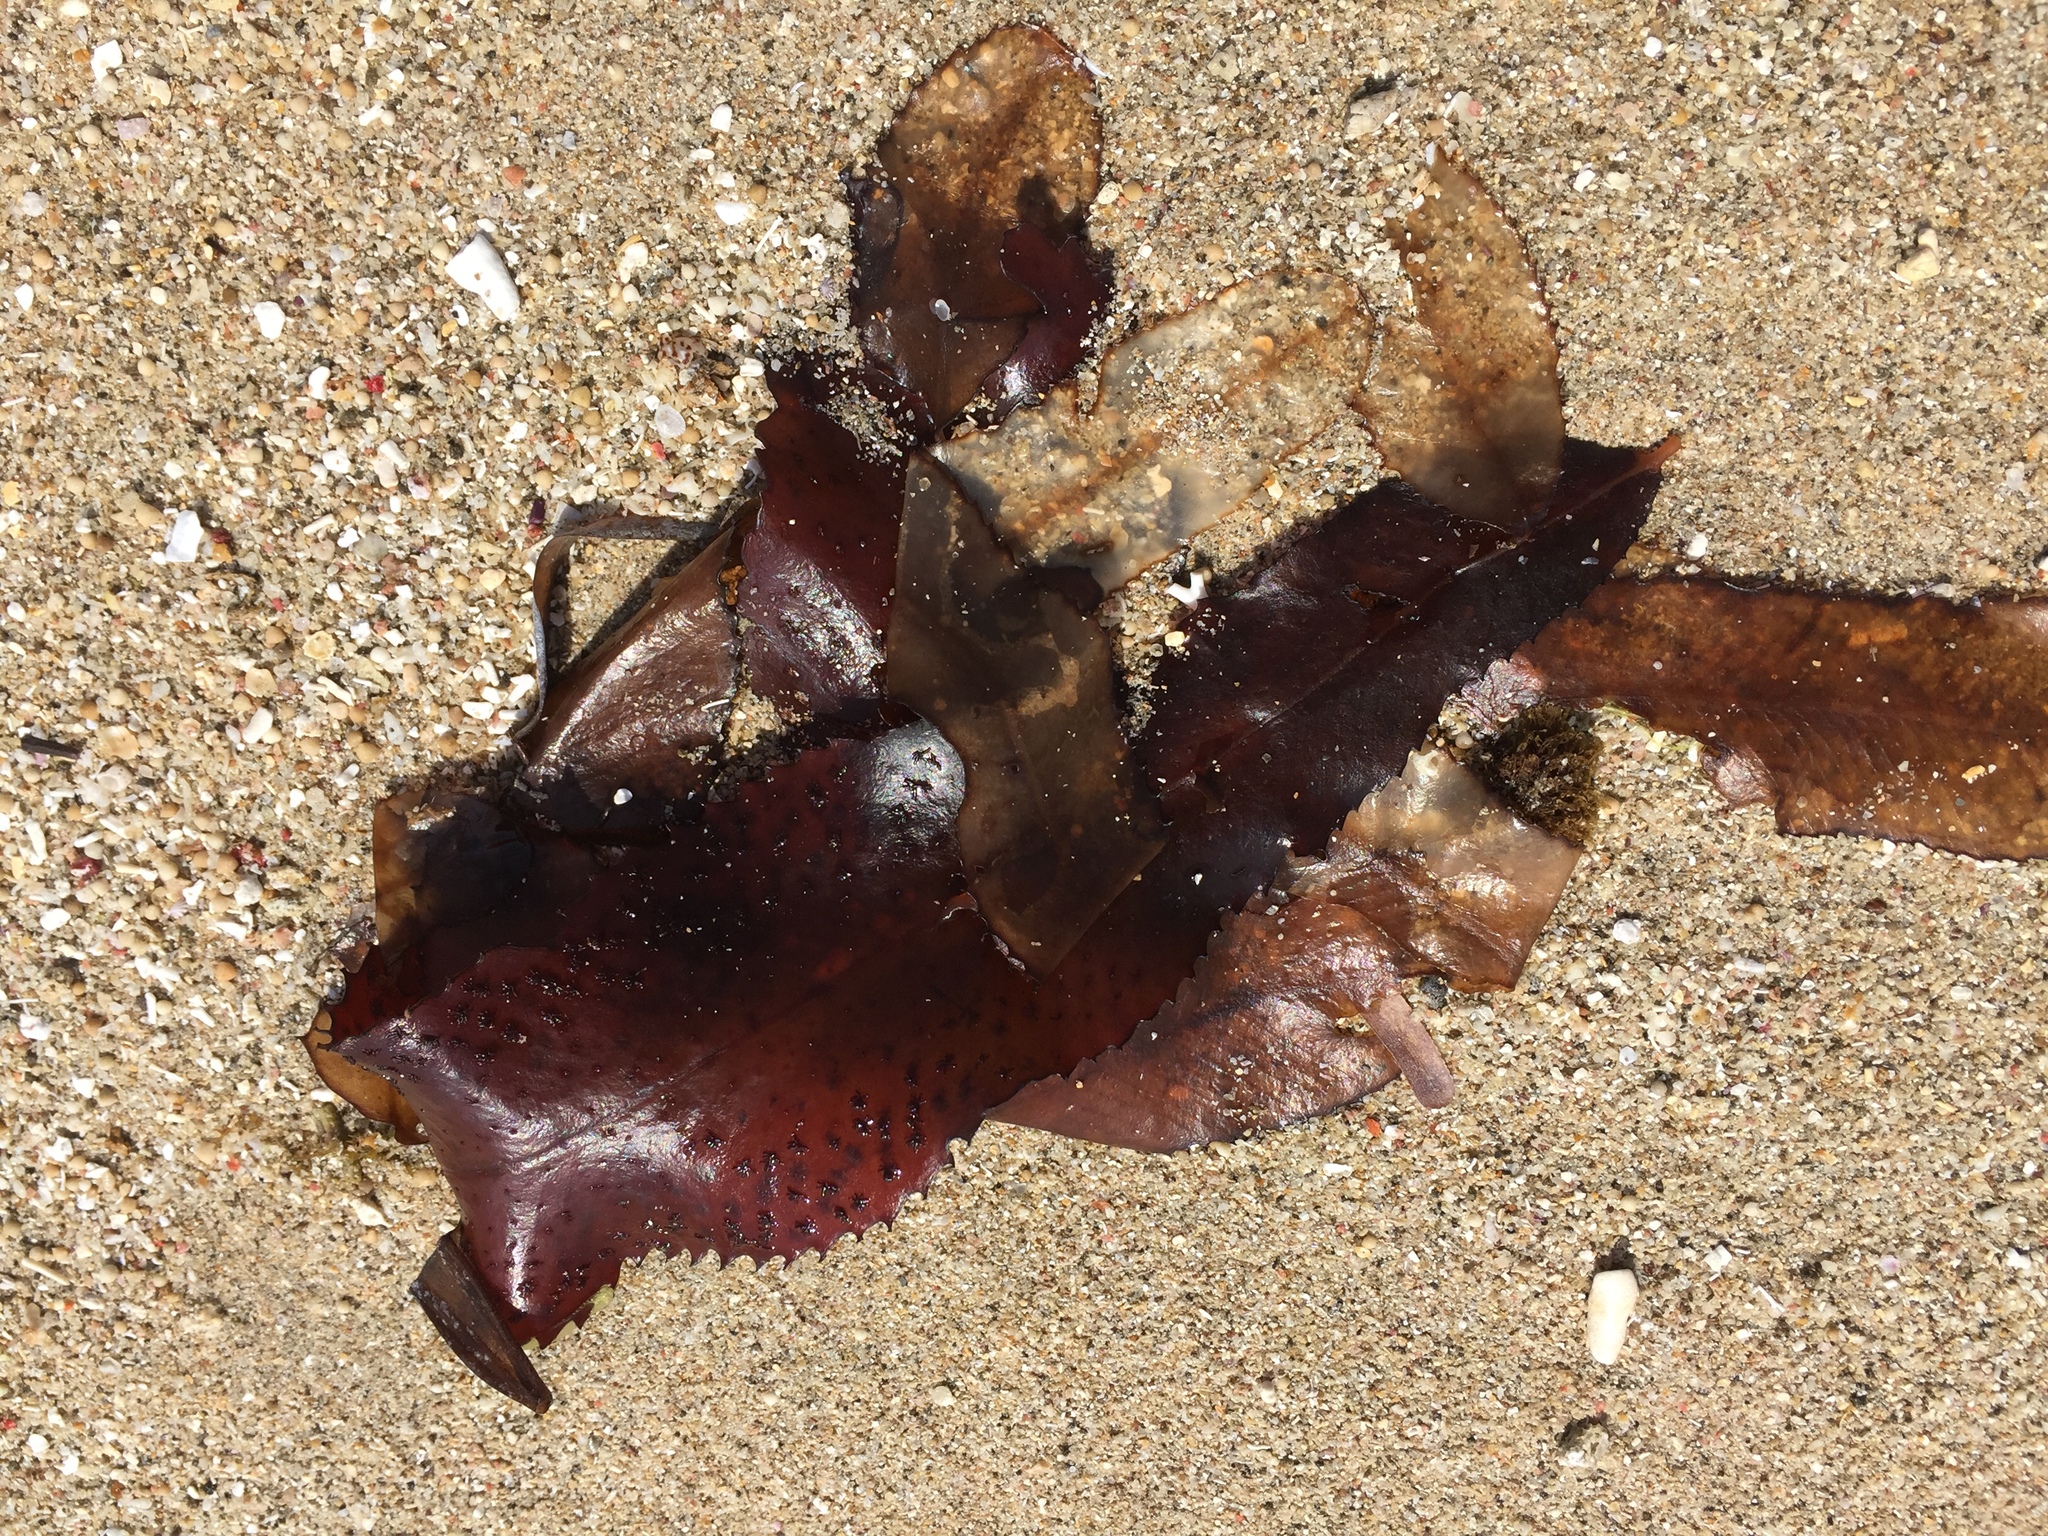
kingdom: Plantae
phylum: Rhodophyta
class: Florideophyceae
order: Ceramiales
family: Rhodomelaceae
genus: Neurymenia
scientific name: Neurymenia fraxinifolia
